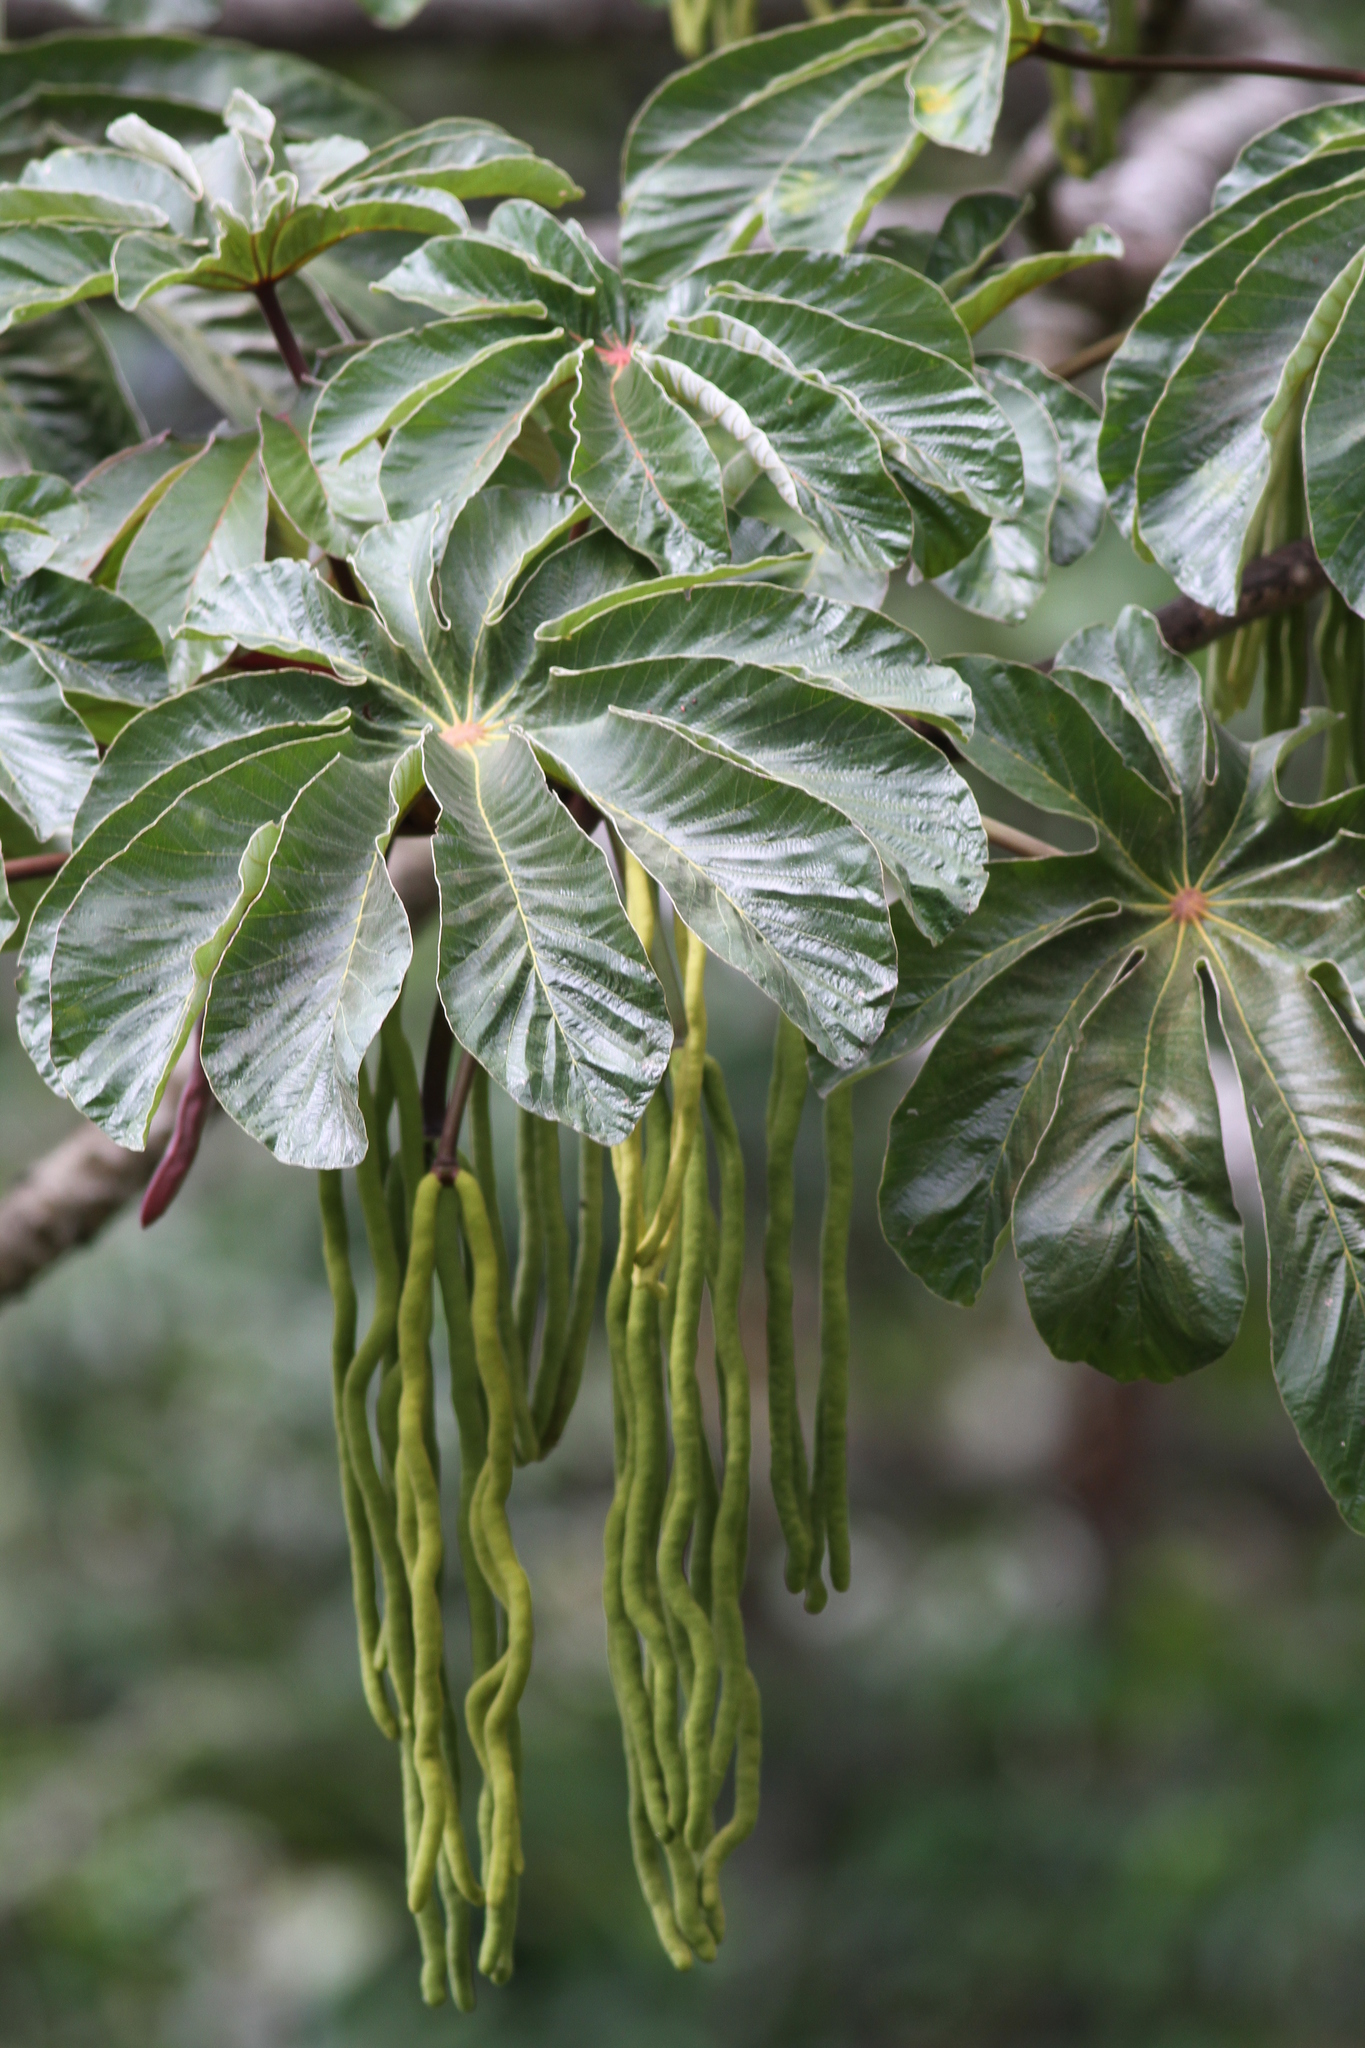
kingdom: Plantae
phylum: Tracheophyta
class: Magnoliopsida
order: Rosales
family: Urticaceae
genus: Cecropia
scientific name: Cecropia obtusifolia
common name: Trumpet tree
